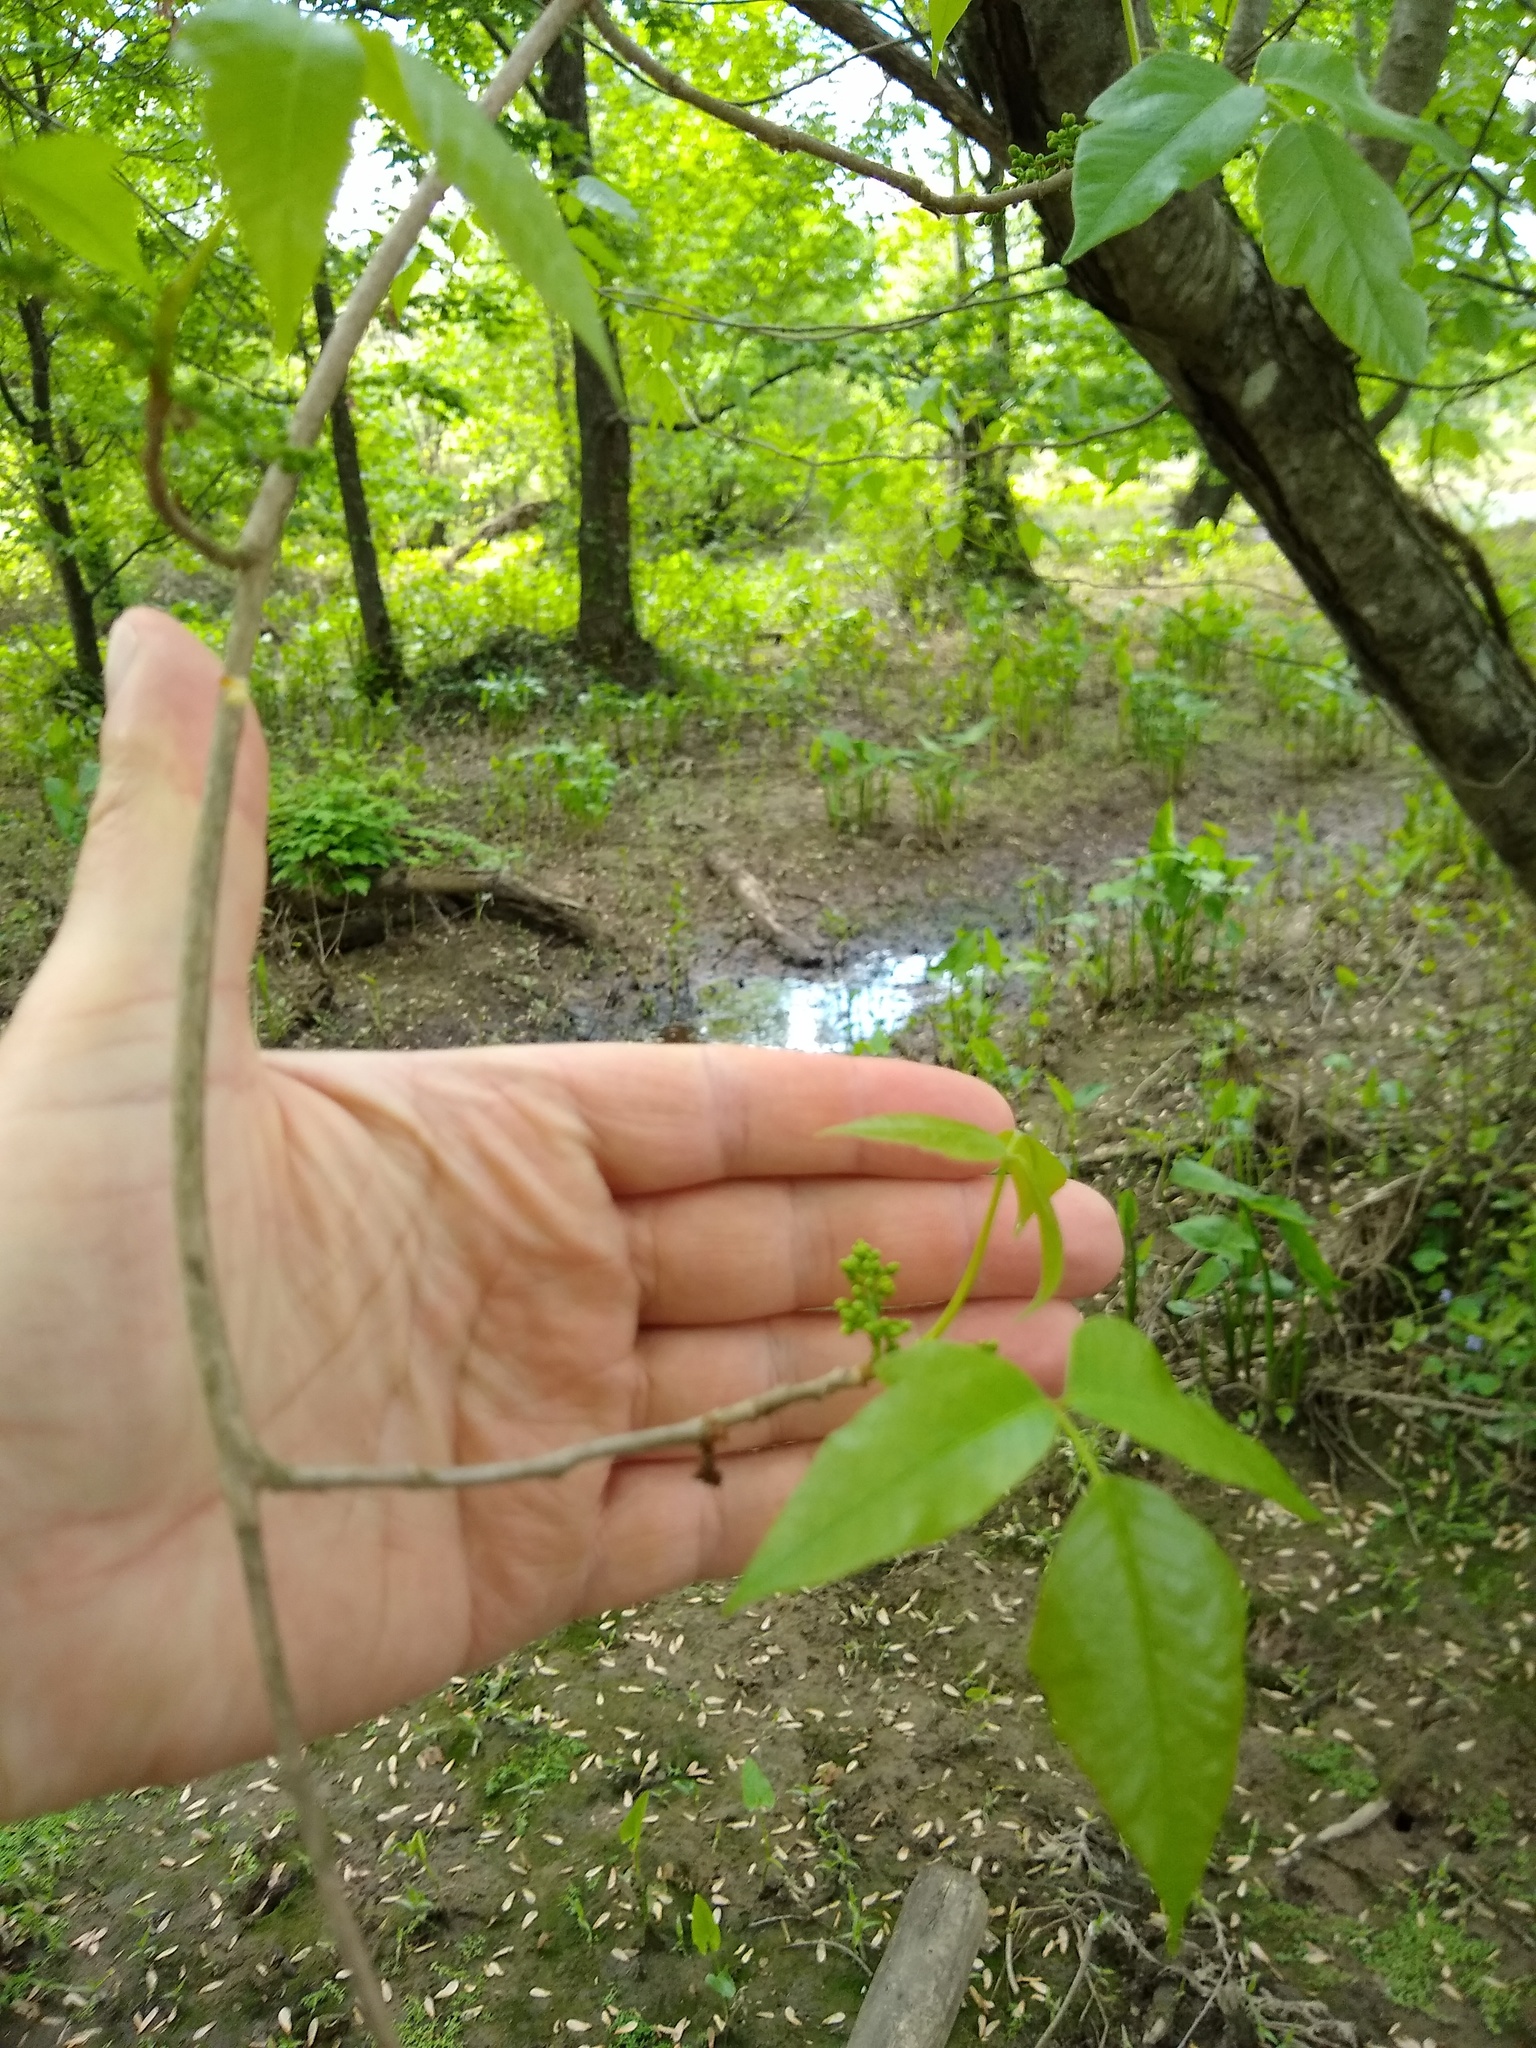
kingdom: Plantae
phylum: Tracheophyta
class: Magnoliopsida
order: Sapindales
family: Anacardiaceae
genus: Toxicodendron
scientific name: Toxicodendron radicans
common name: Poison ivy
